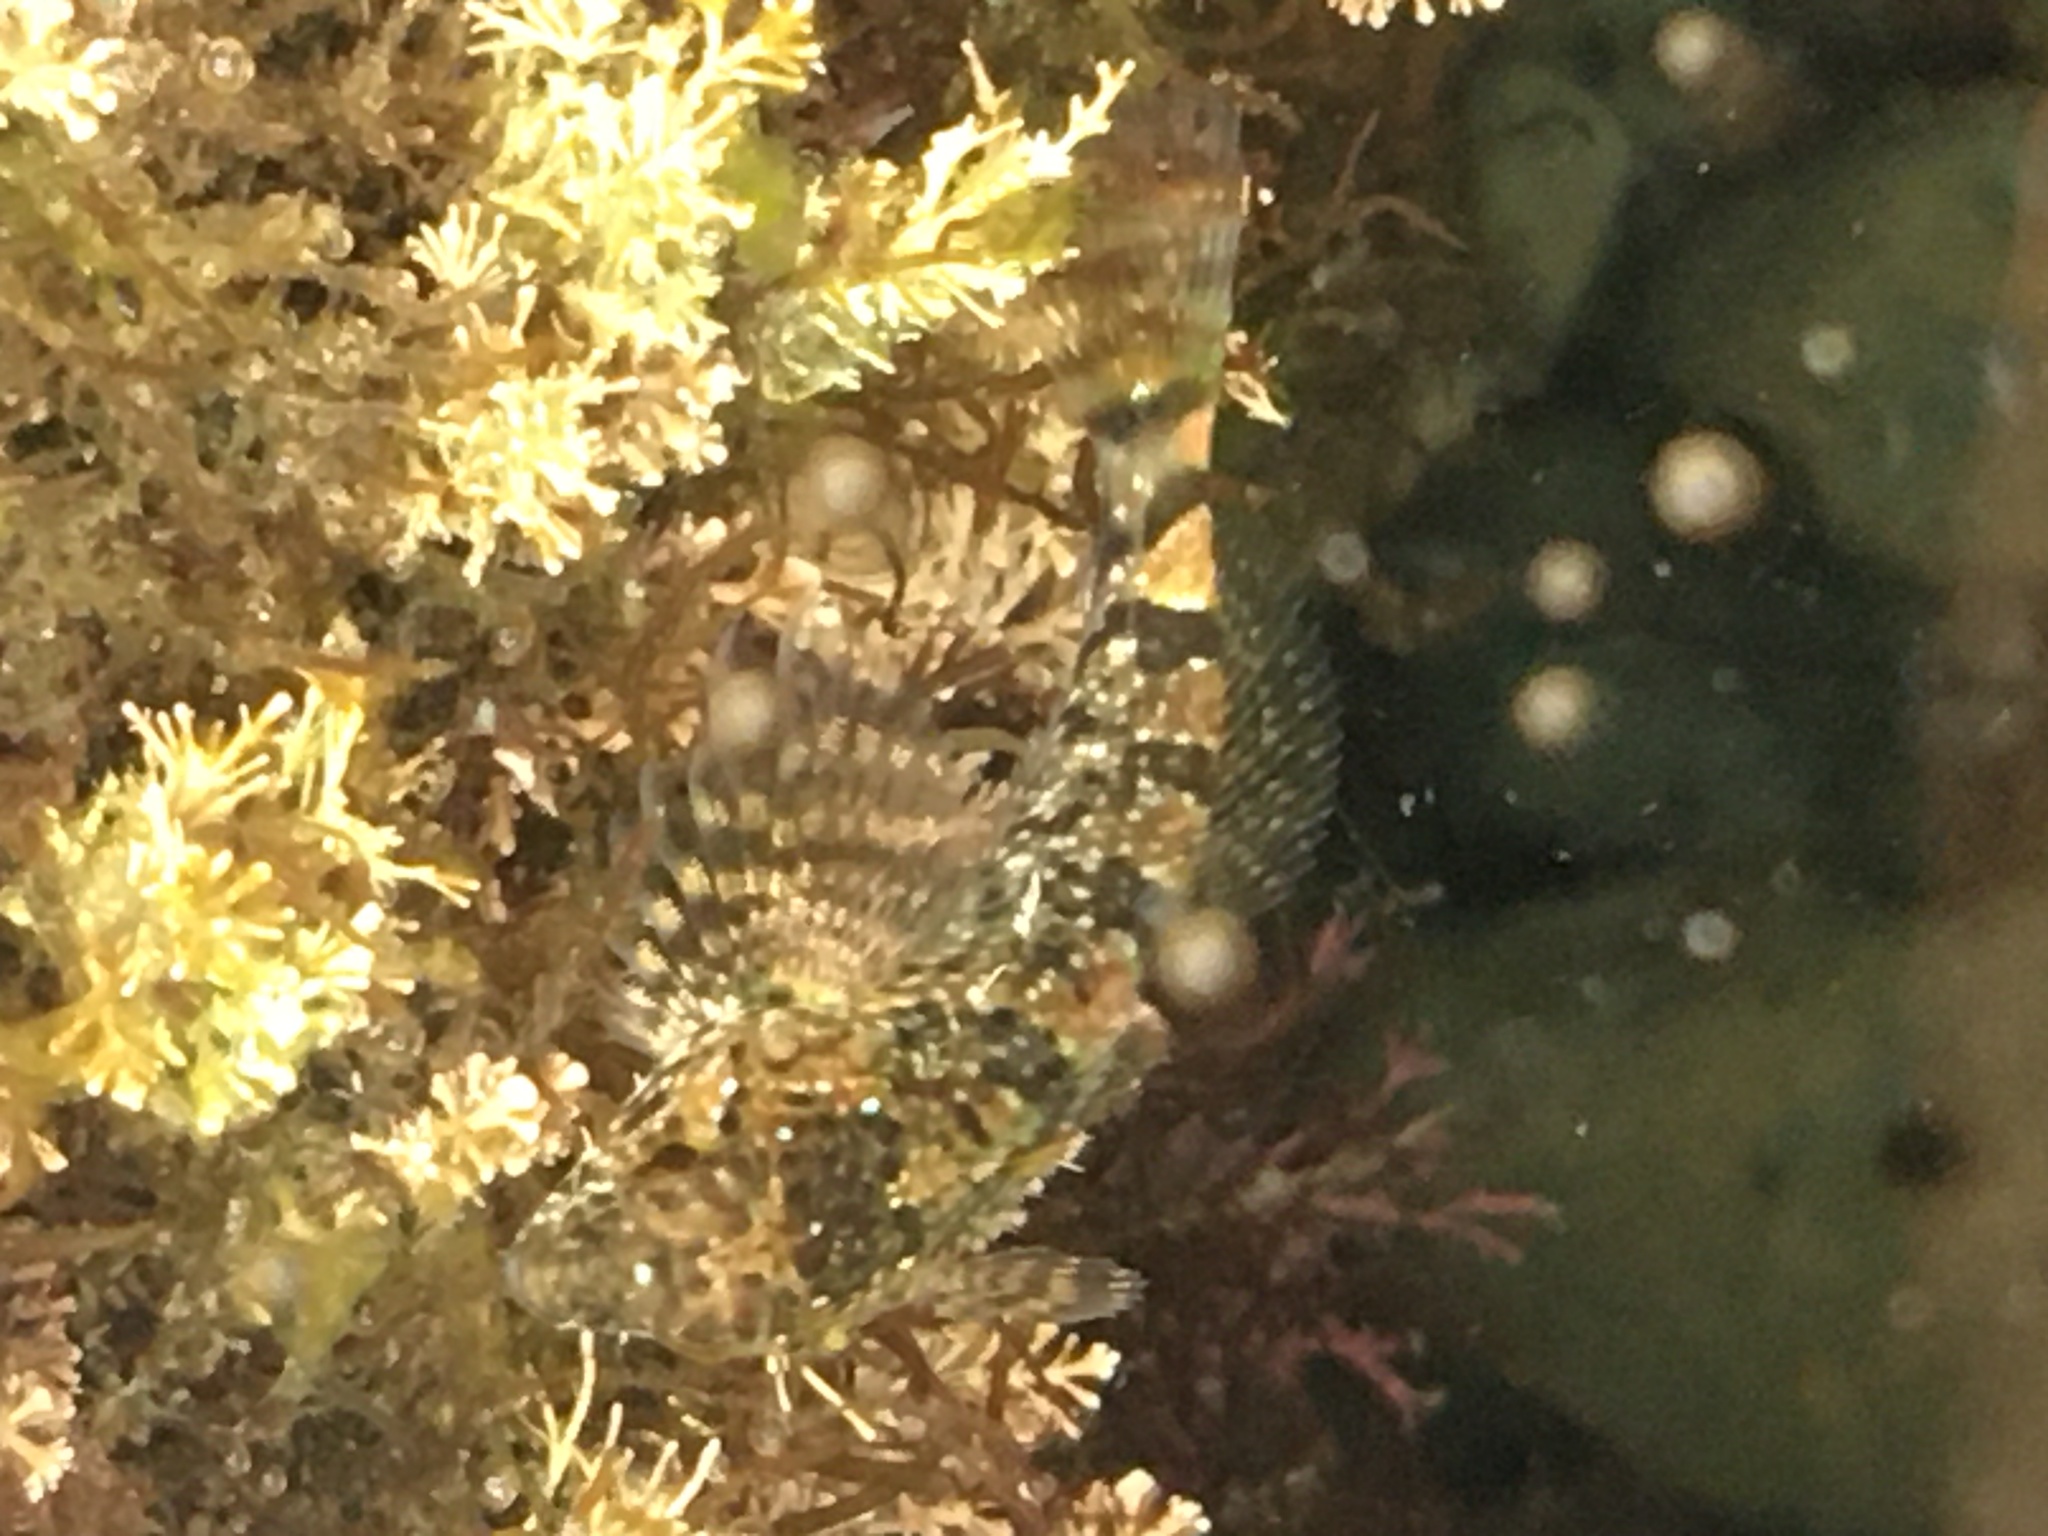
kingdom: Animalia
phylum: Chordata
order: Scorpaeniformes
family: Cottidae
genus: Clinocottus
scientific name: Clinocottus analis
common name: Woolly sculpin
